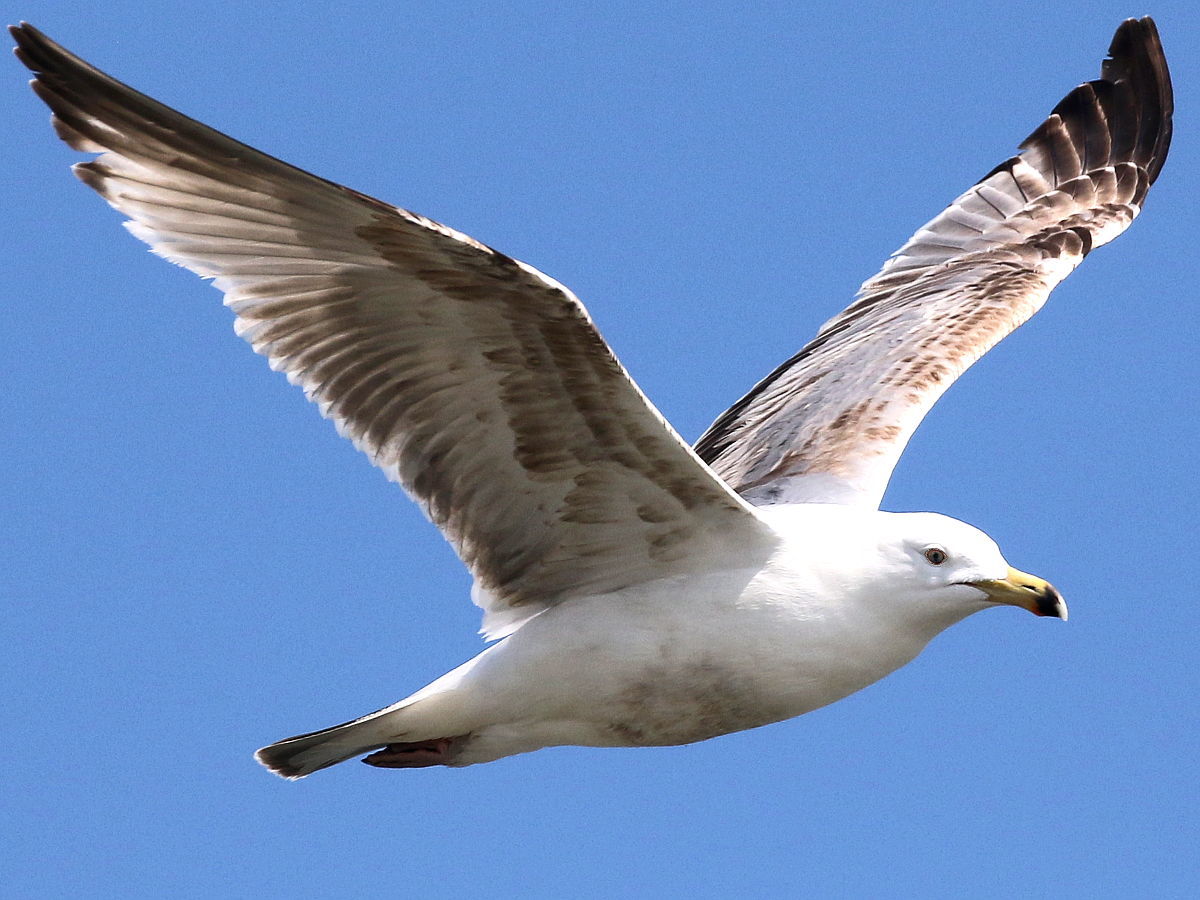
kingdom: Animalia
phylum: Chordata
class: Aves
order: Charadriiformes
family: Laridae
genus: Larus
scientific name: Larus argentatus
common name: Herring gull
